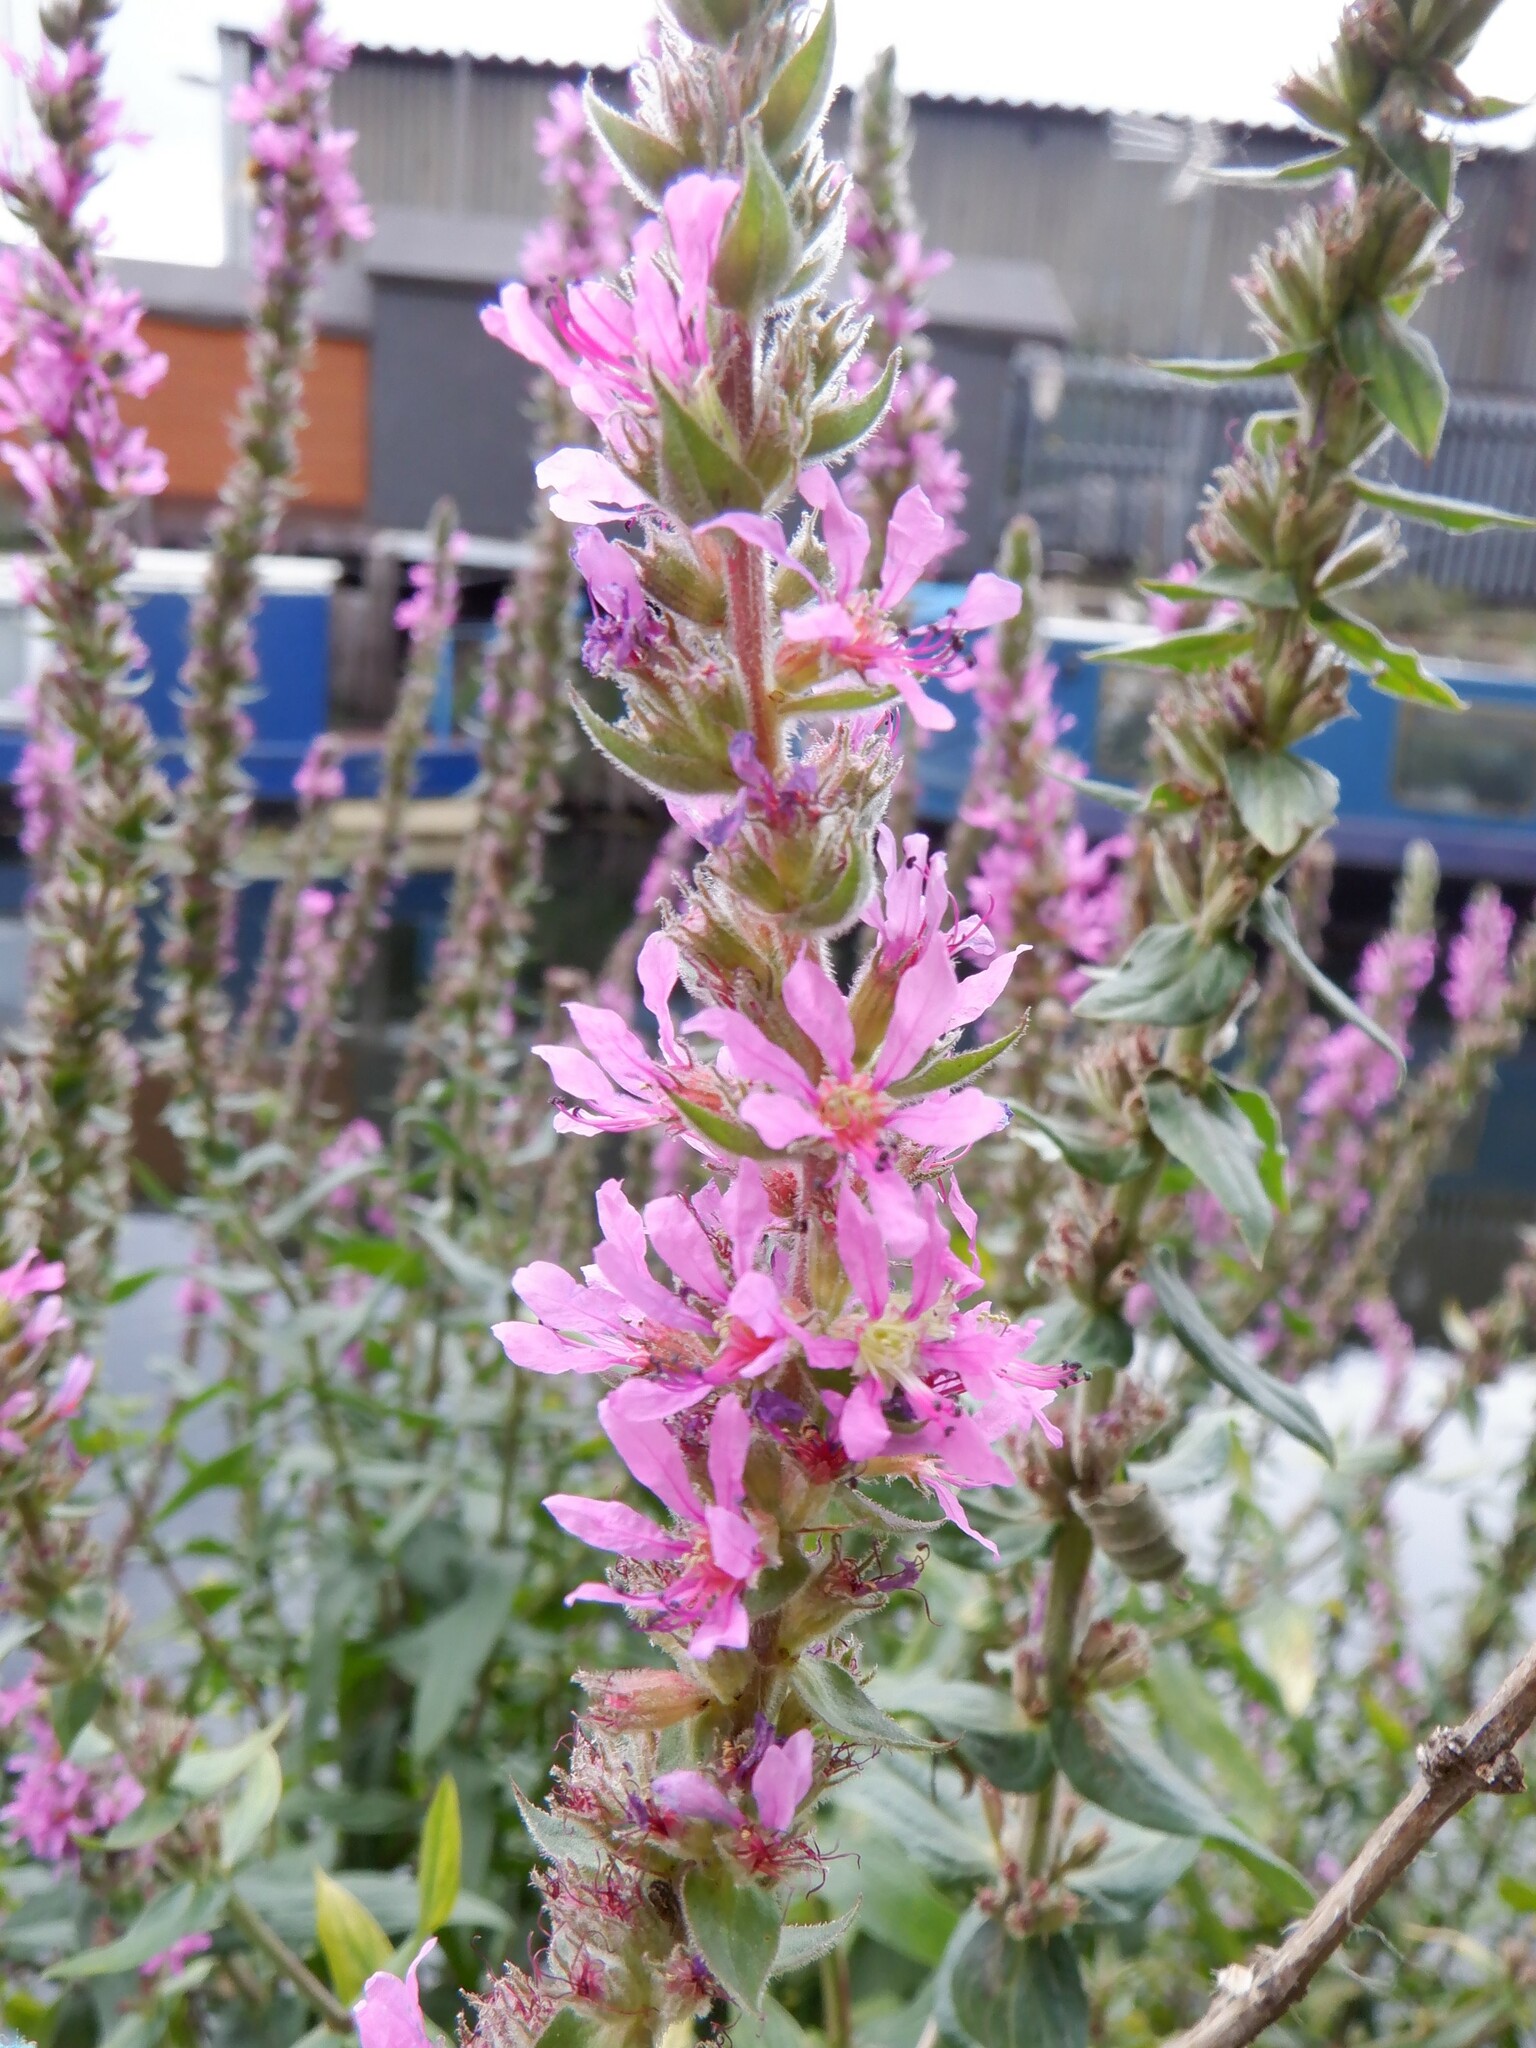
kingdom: Plantae
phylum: Tracheophyta
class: Magnoliopsida
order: Myrtales
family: Lythraceae
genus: Lythrum
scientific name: Lythrum salicaria
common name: Purple loosestrife
